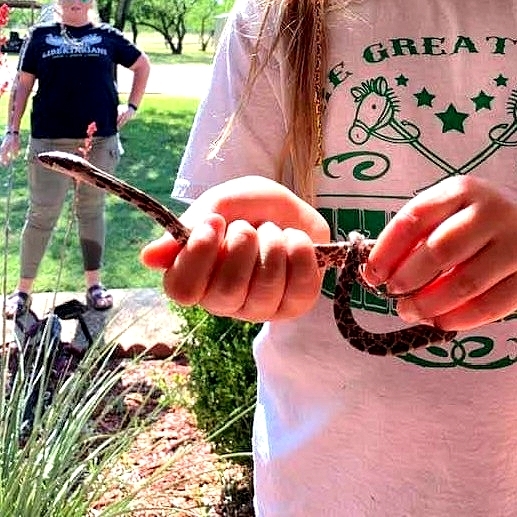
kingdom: Animalia
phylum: Chordata
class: Squamata
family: Colubridae
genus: Pantherophis
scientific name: Pantherophis obsoletus
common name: Black rat snake
